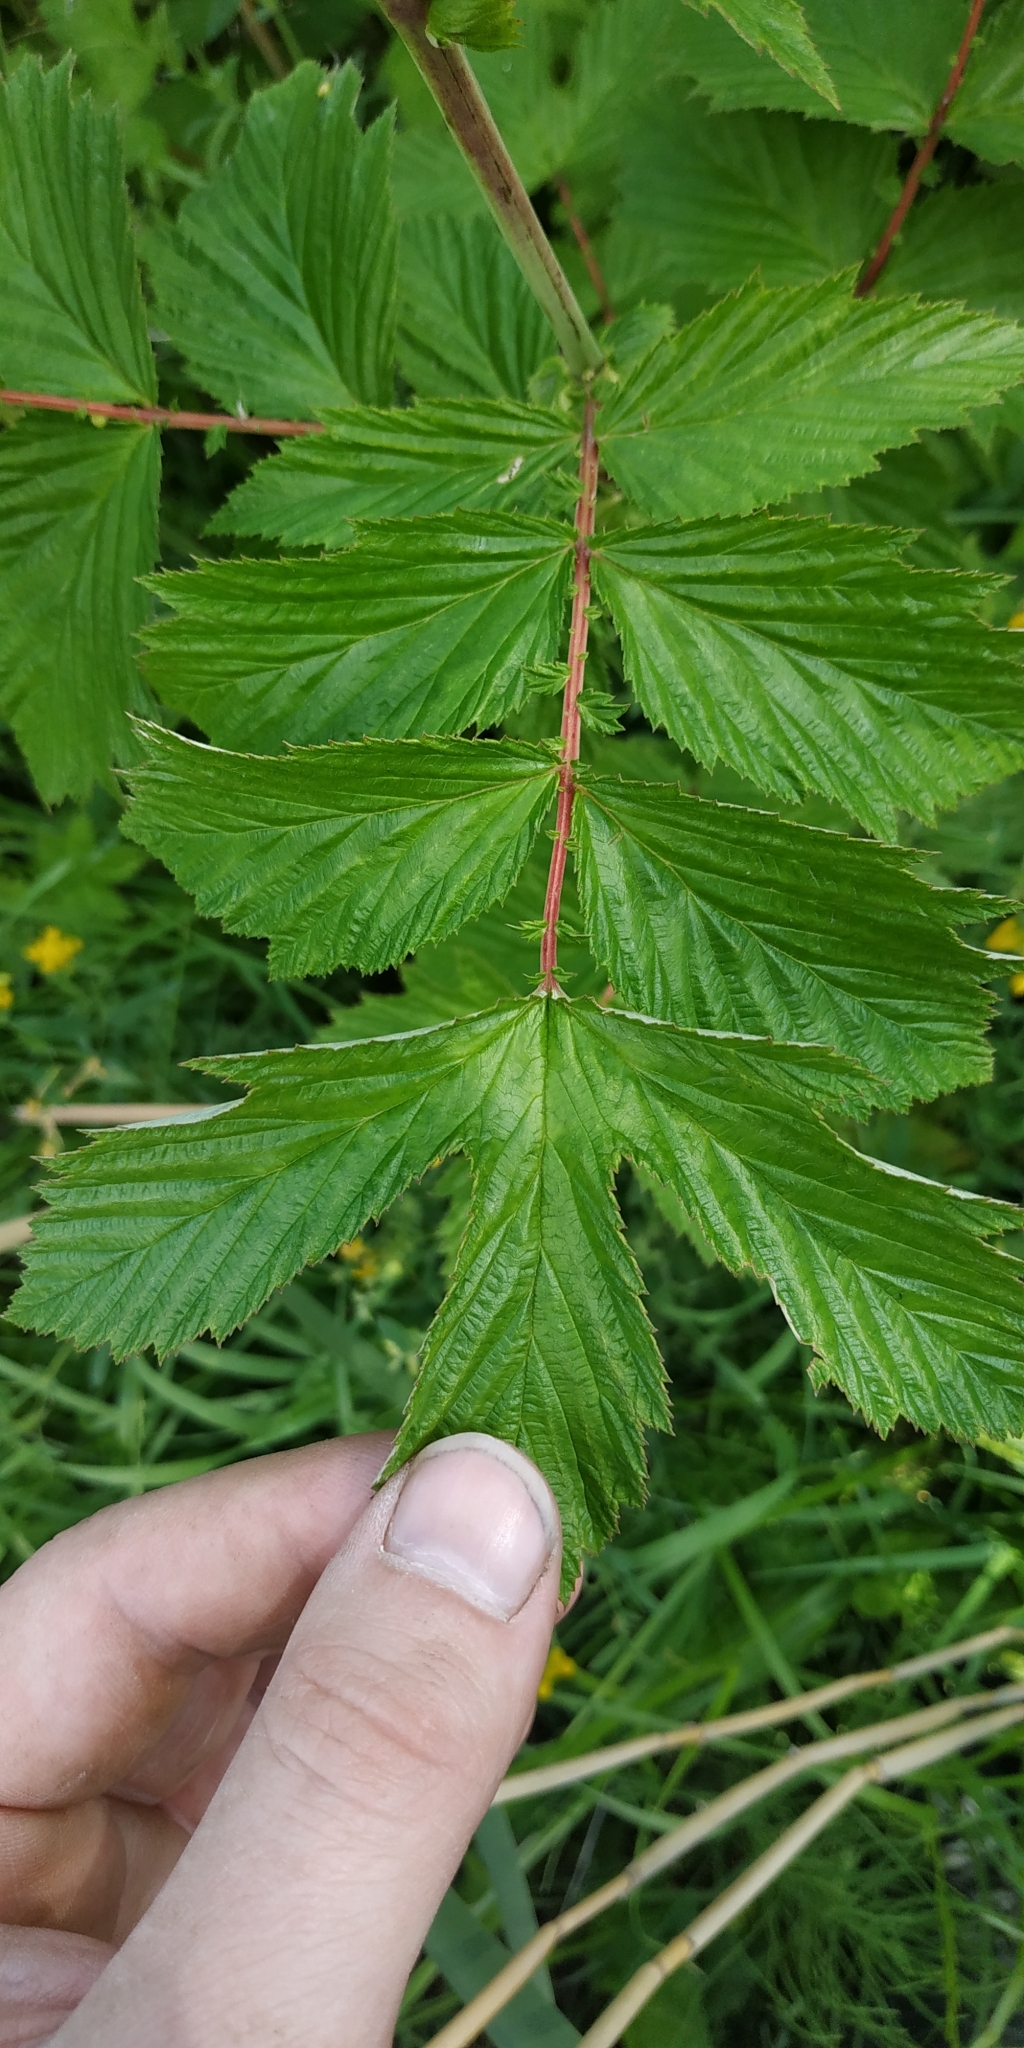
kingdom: Plantae
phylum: Tracheophyta
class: Magnoliopsida
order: Rosales
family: Rosaceae
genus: Filipendula
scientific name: Filipendula ulmaria
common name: Meadowsweet
